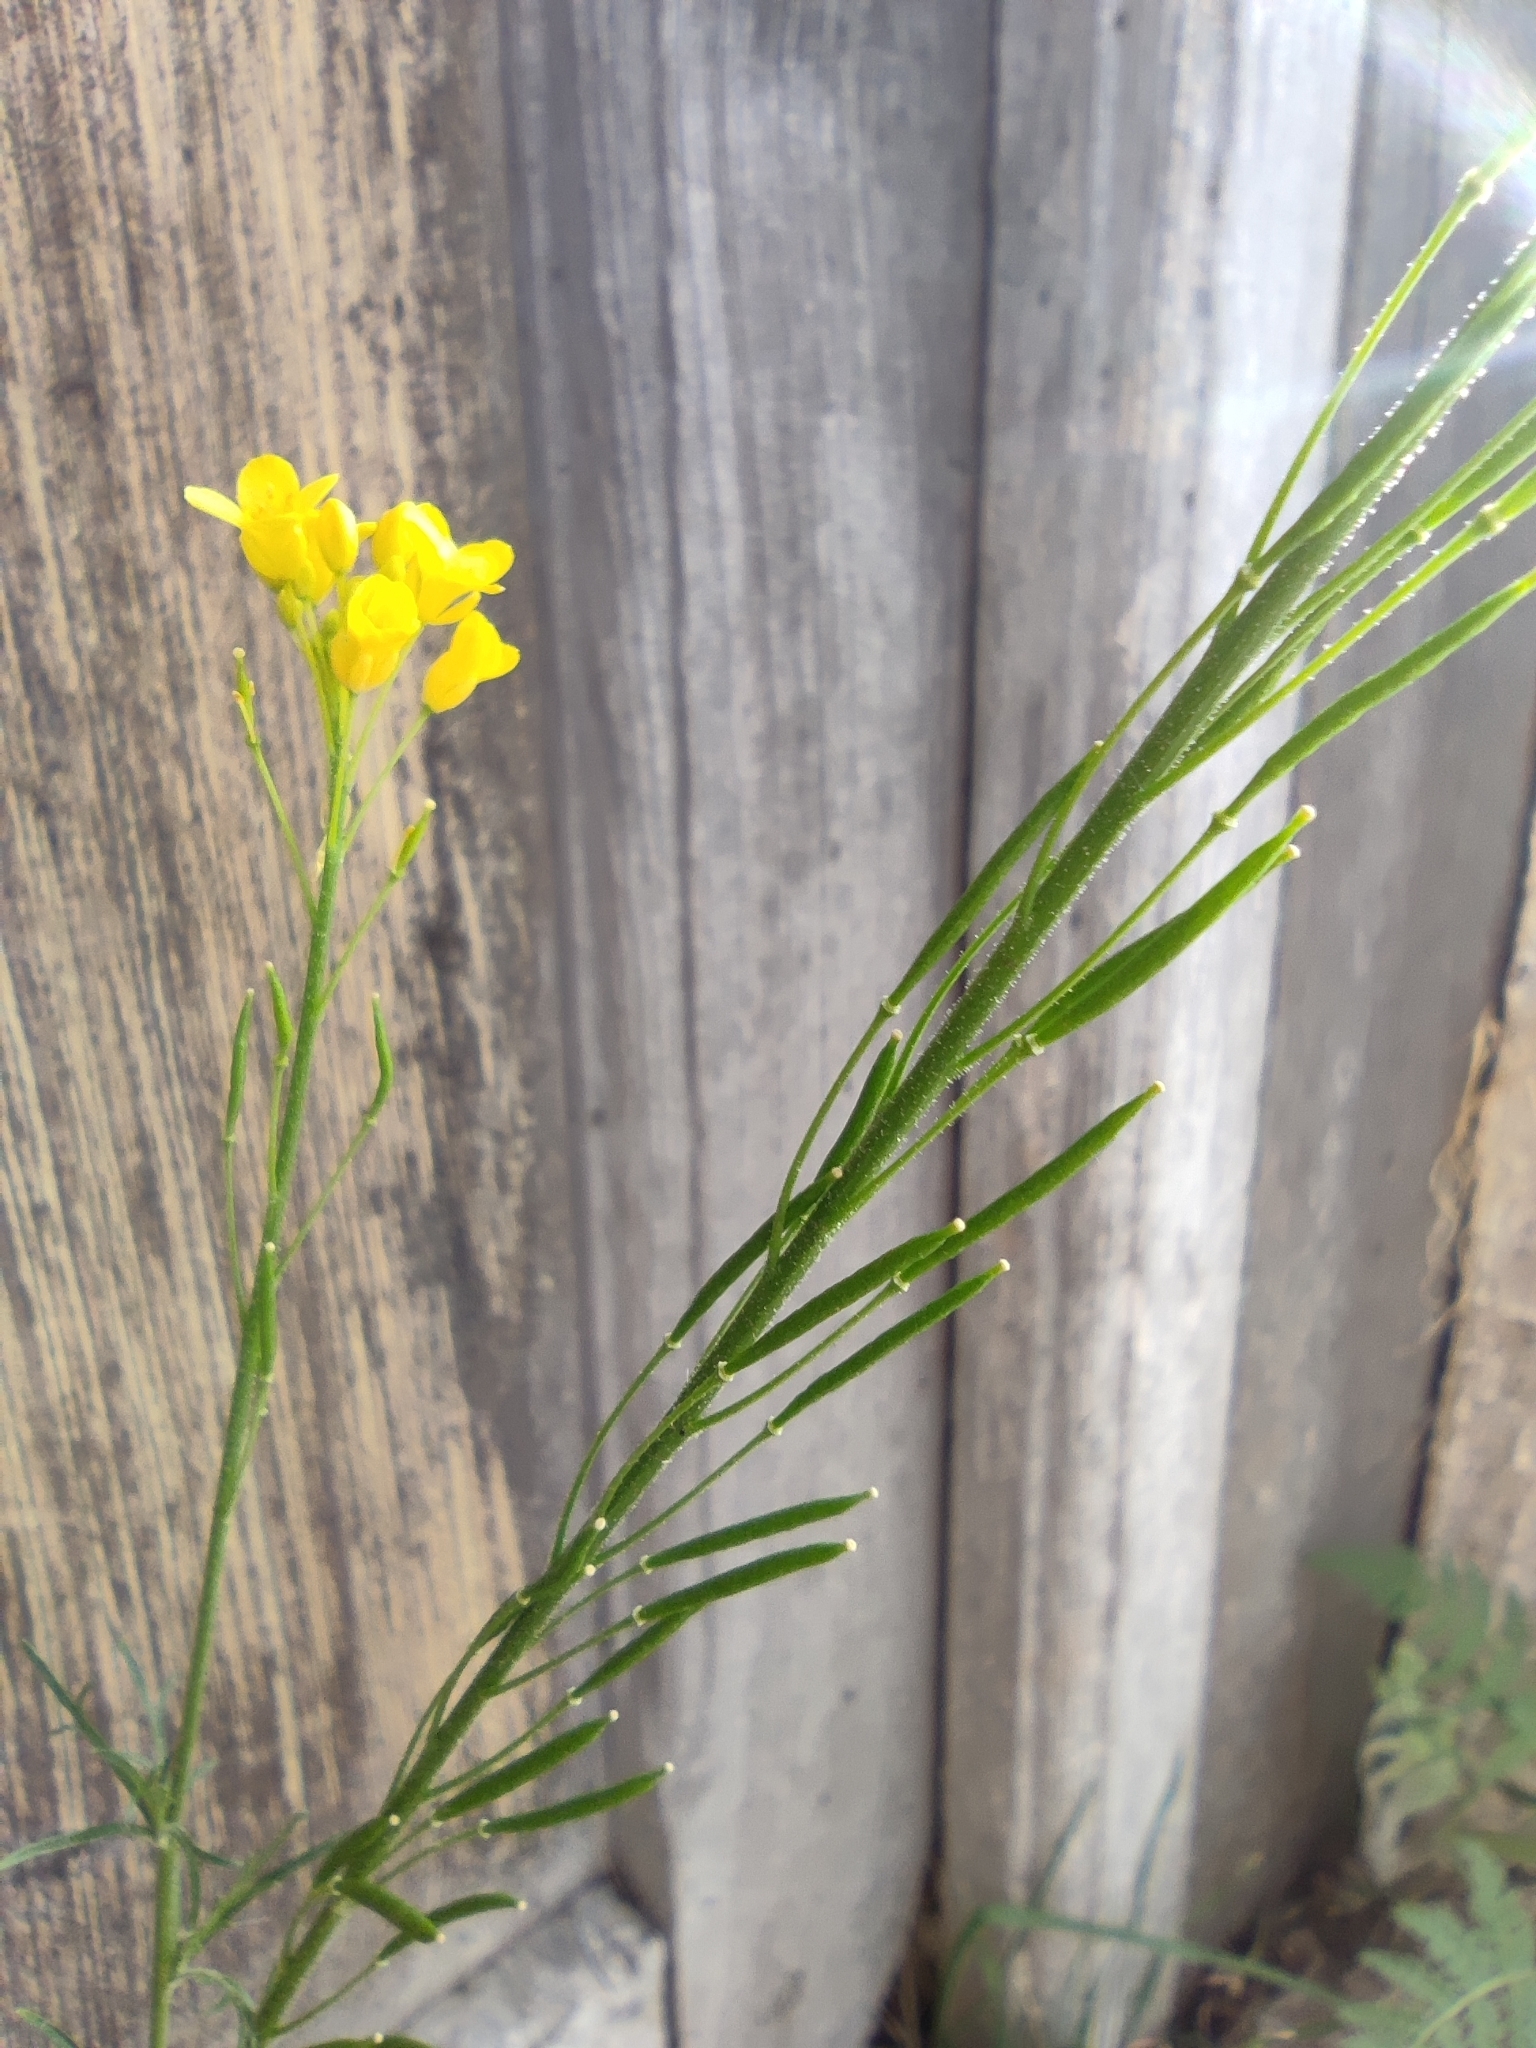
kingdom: Plantae
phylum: Tracheophyta
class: Magnoliopsida
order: Brassicales
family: Brassicaceae
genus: Descurainia
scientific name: Descurainia preauxiana
